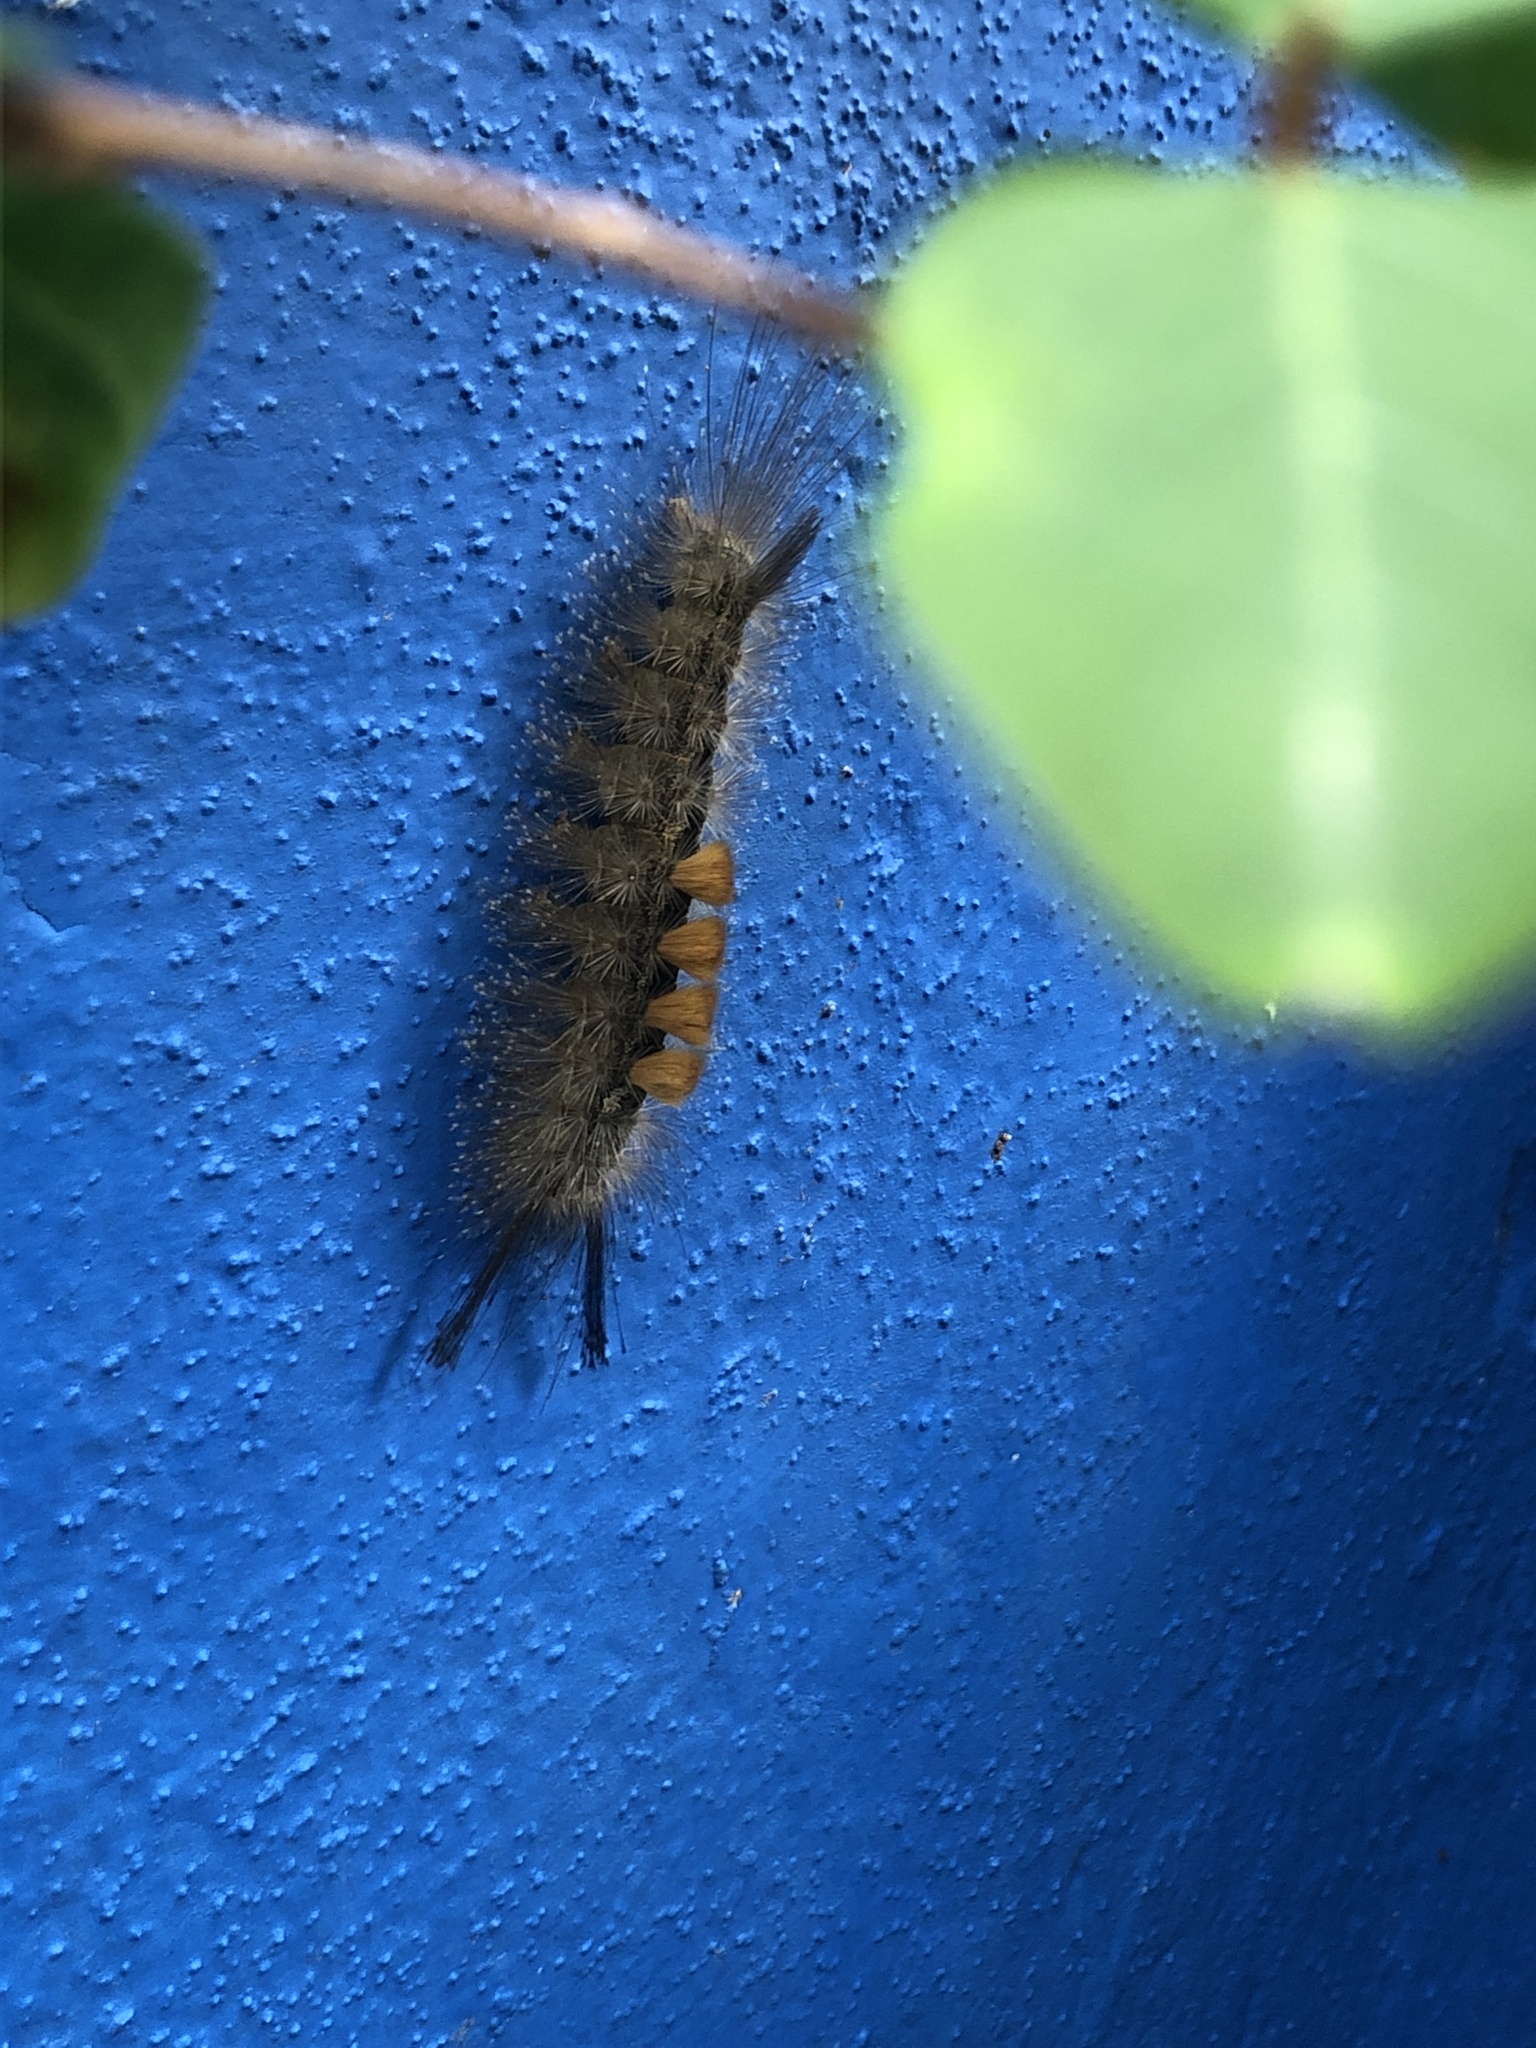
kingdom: Animalia
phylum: Arthropoda
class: Insecta
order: Lepidoptera
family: Erebidae
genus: Dasychira
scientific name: Dasychira chekiangensis
